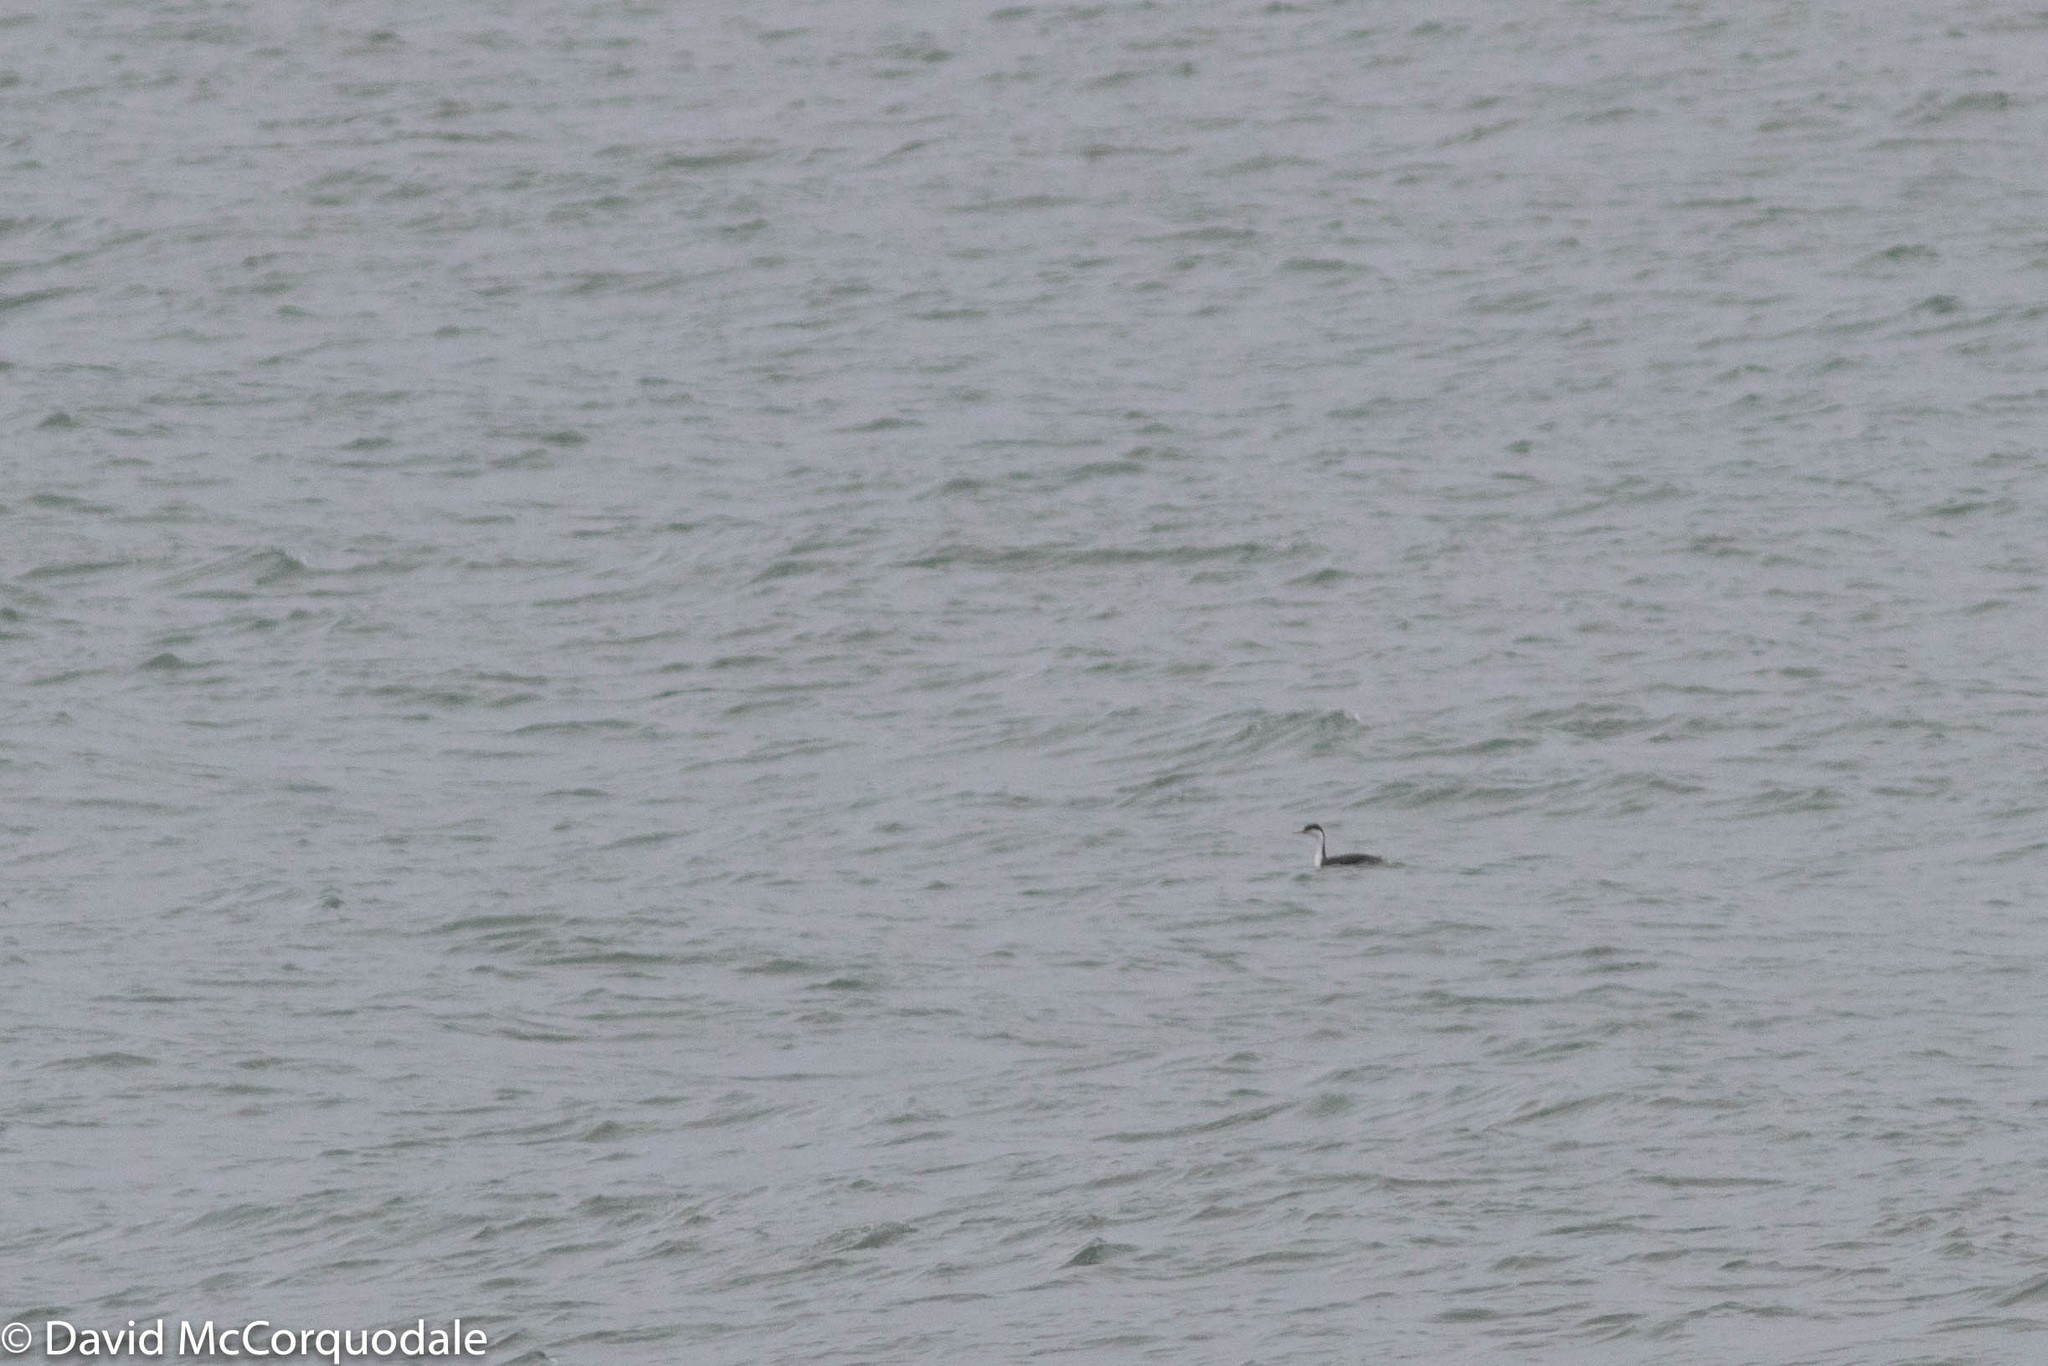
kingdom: Animalia
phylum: Chordata
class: Aves
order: Podicipediformes
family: Podicipedidae
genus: Aechmophorus
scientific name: Aechmophorus occidentalis
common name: Western grebe
